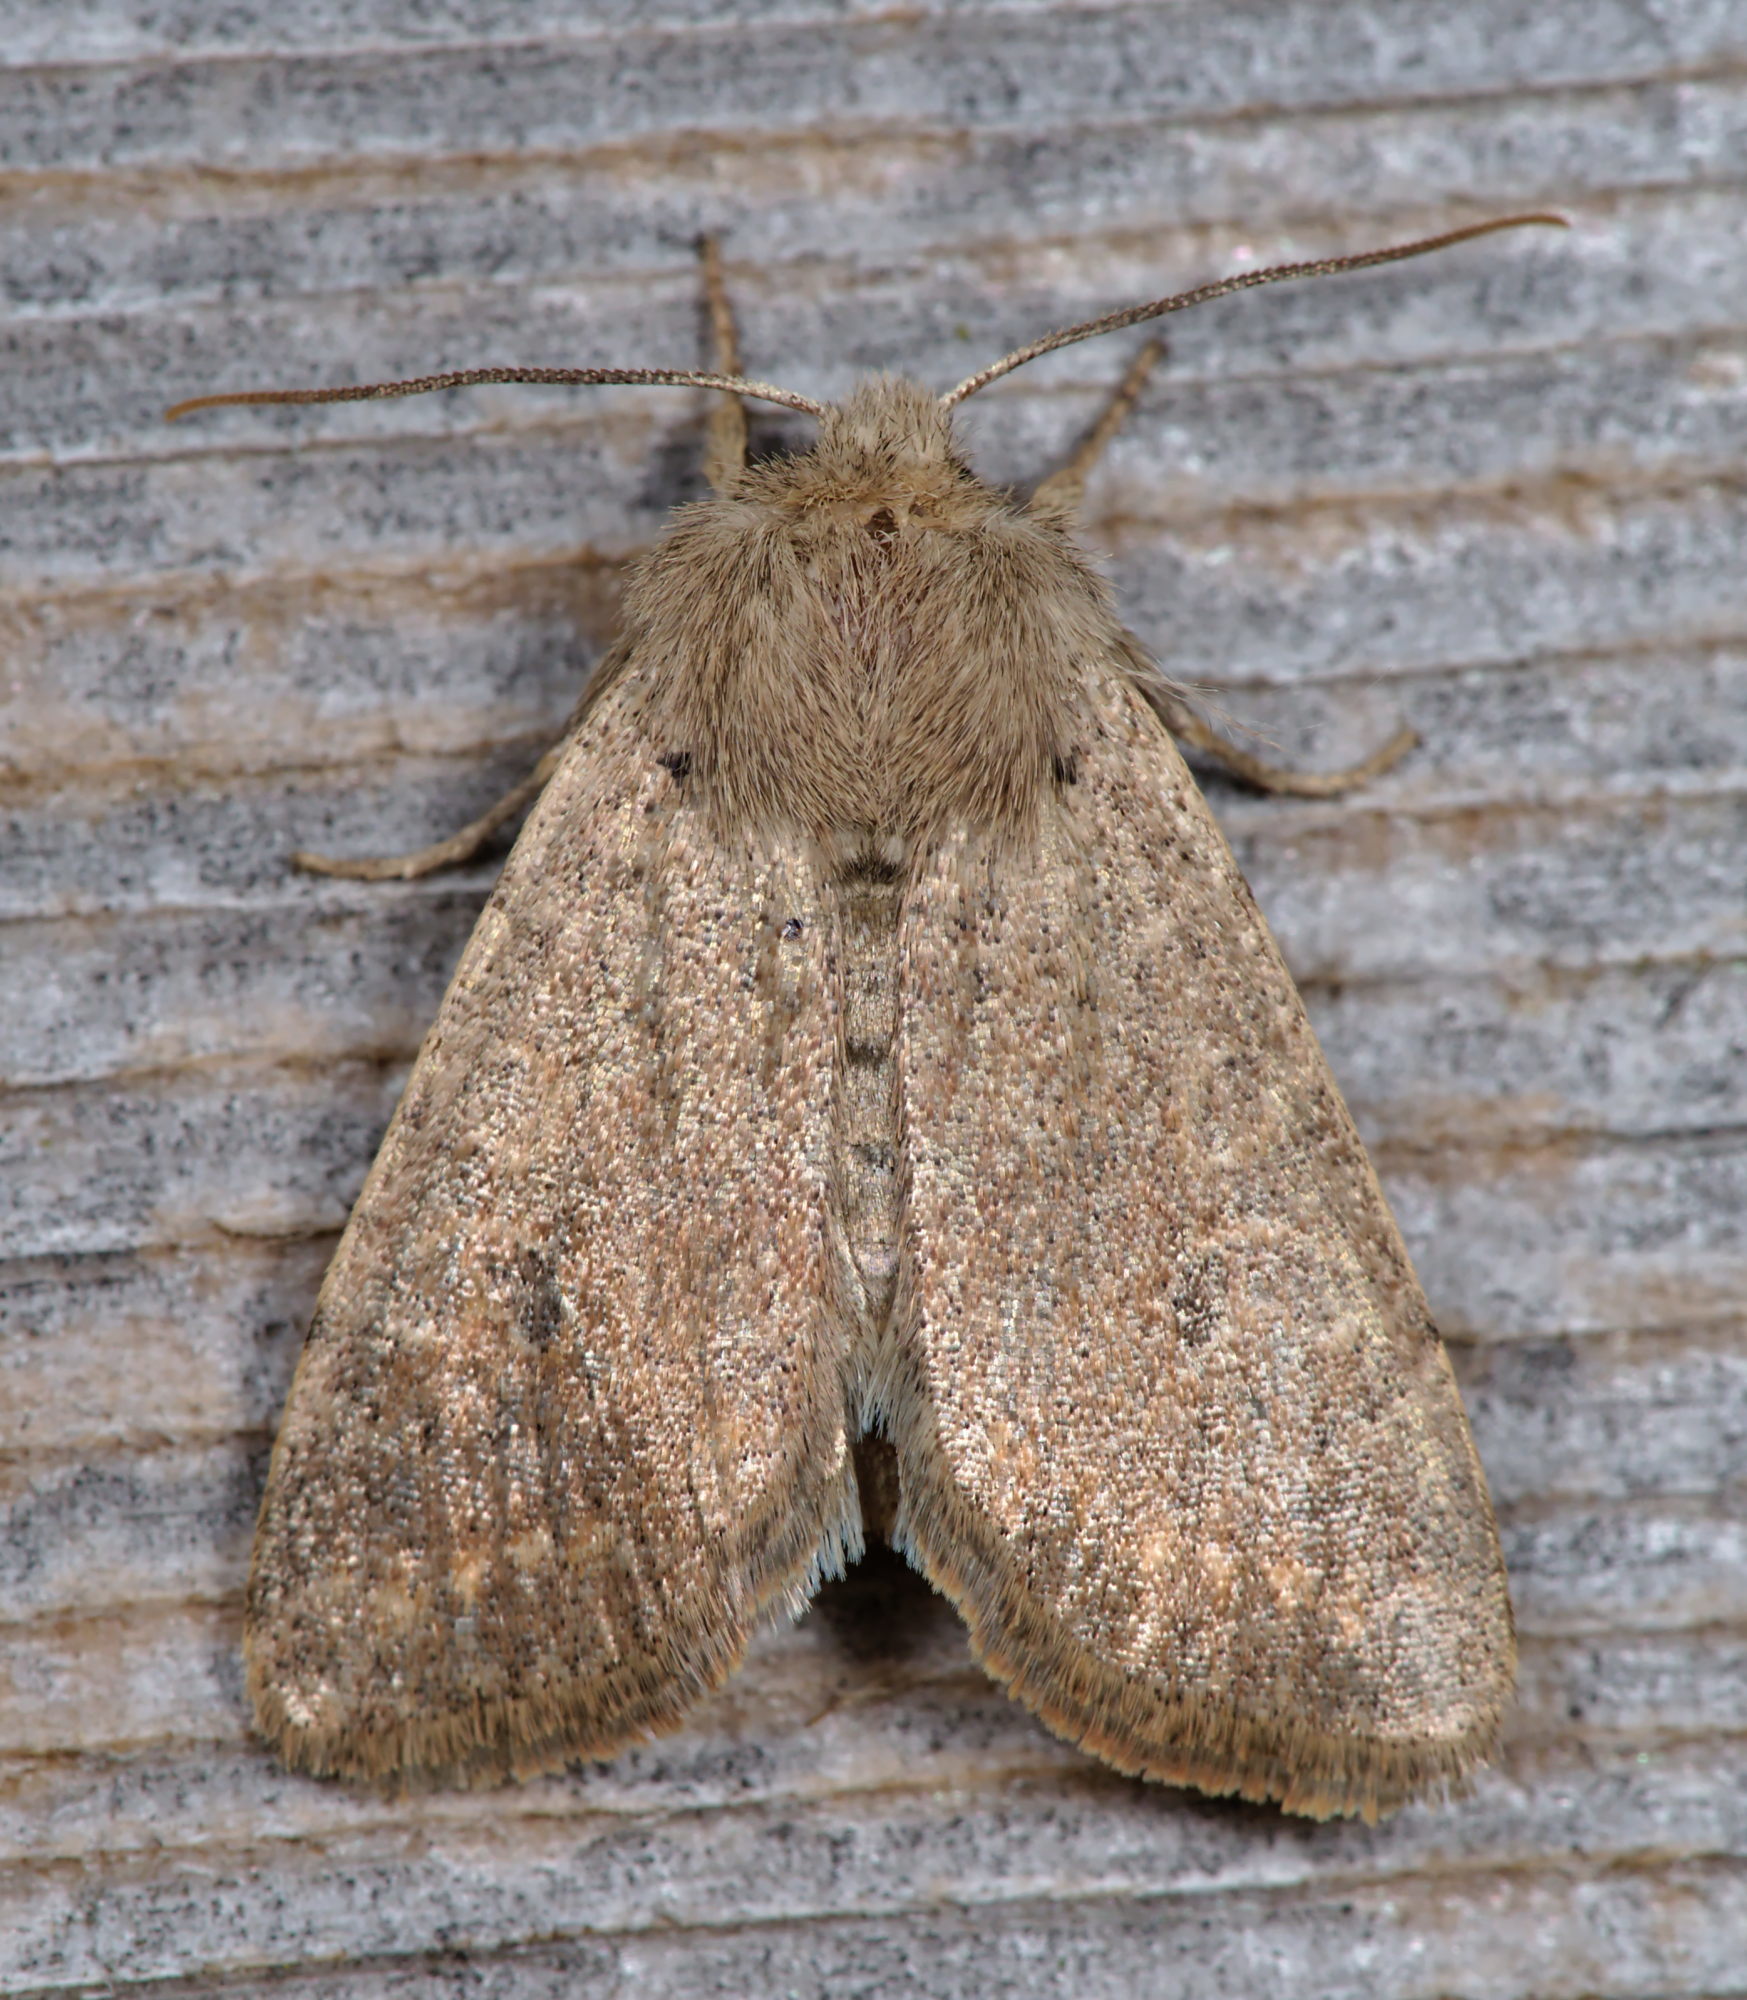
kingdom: Animalia
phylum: Arthropoda
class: Insecta
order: Lepidoptera
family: Noctuidae
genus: Orthosia
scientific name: Orthosia cruda
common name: Small quaker
